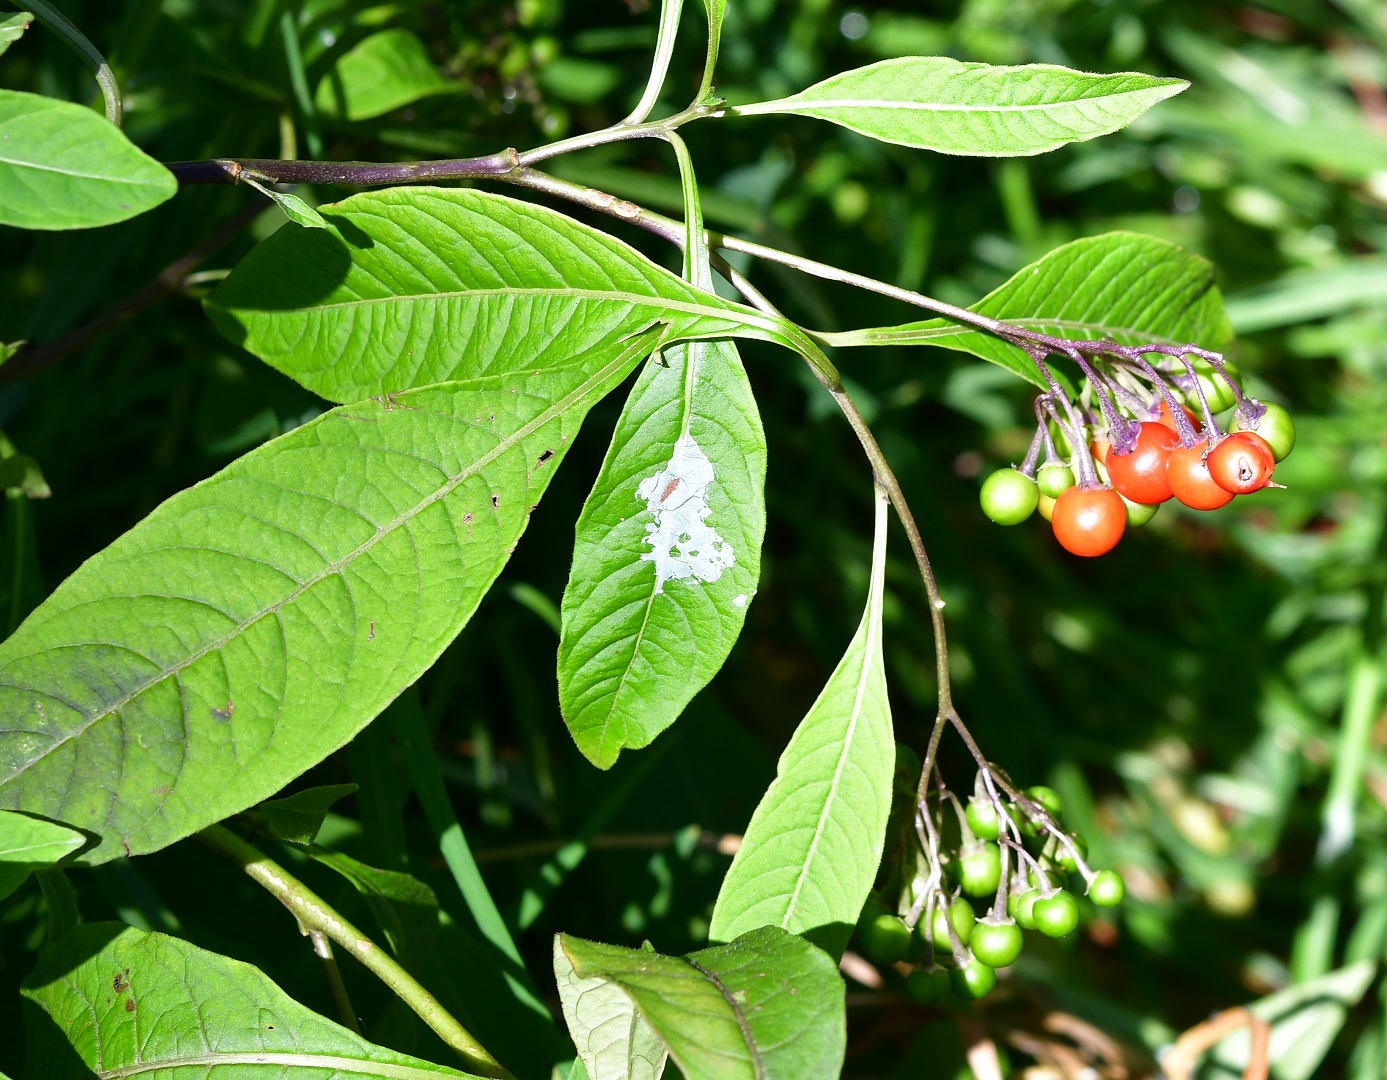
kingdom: Plantae
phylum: Tracheophyta
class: Magnoliopsida
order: Solanales
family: Solanaceae
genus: Solanum
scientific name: Solanum pubigerum
